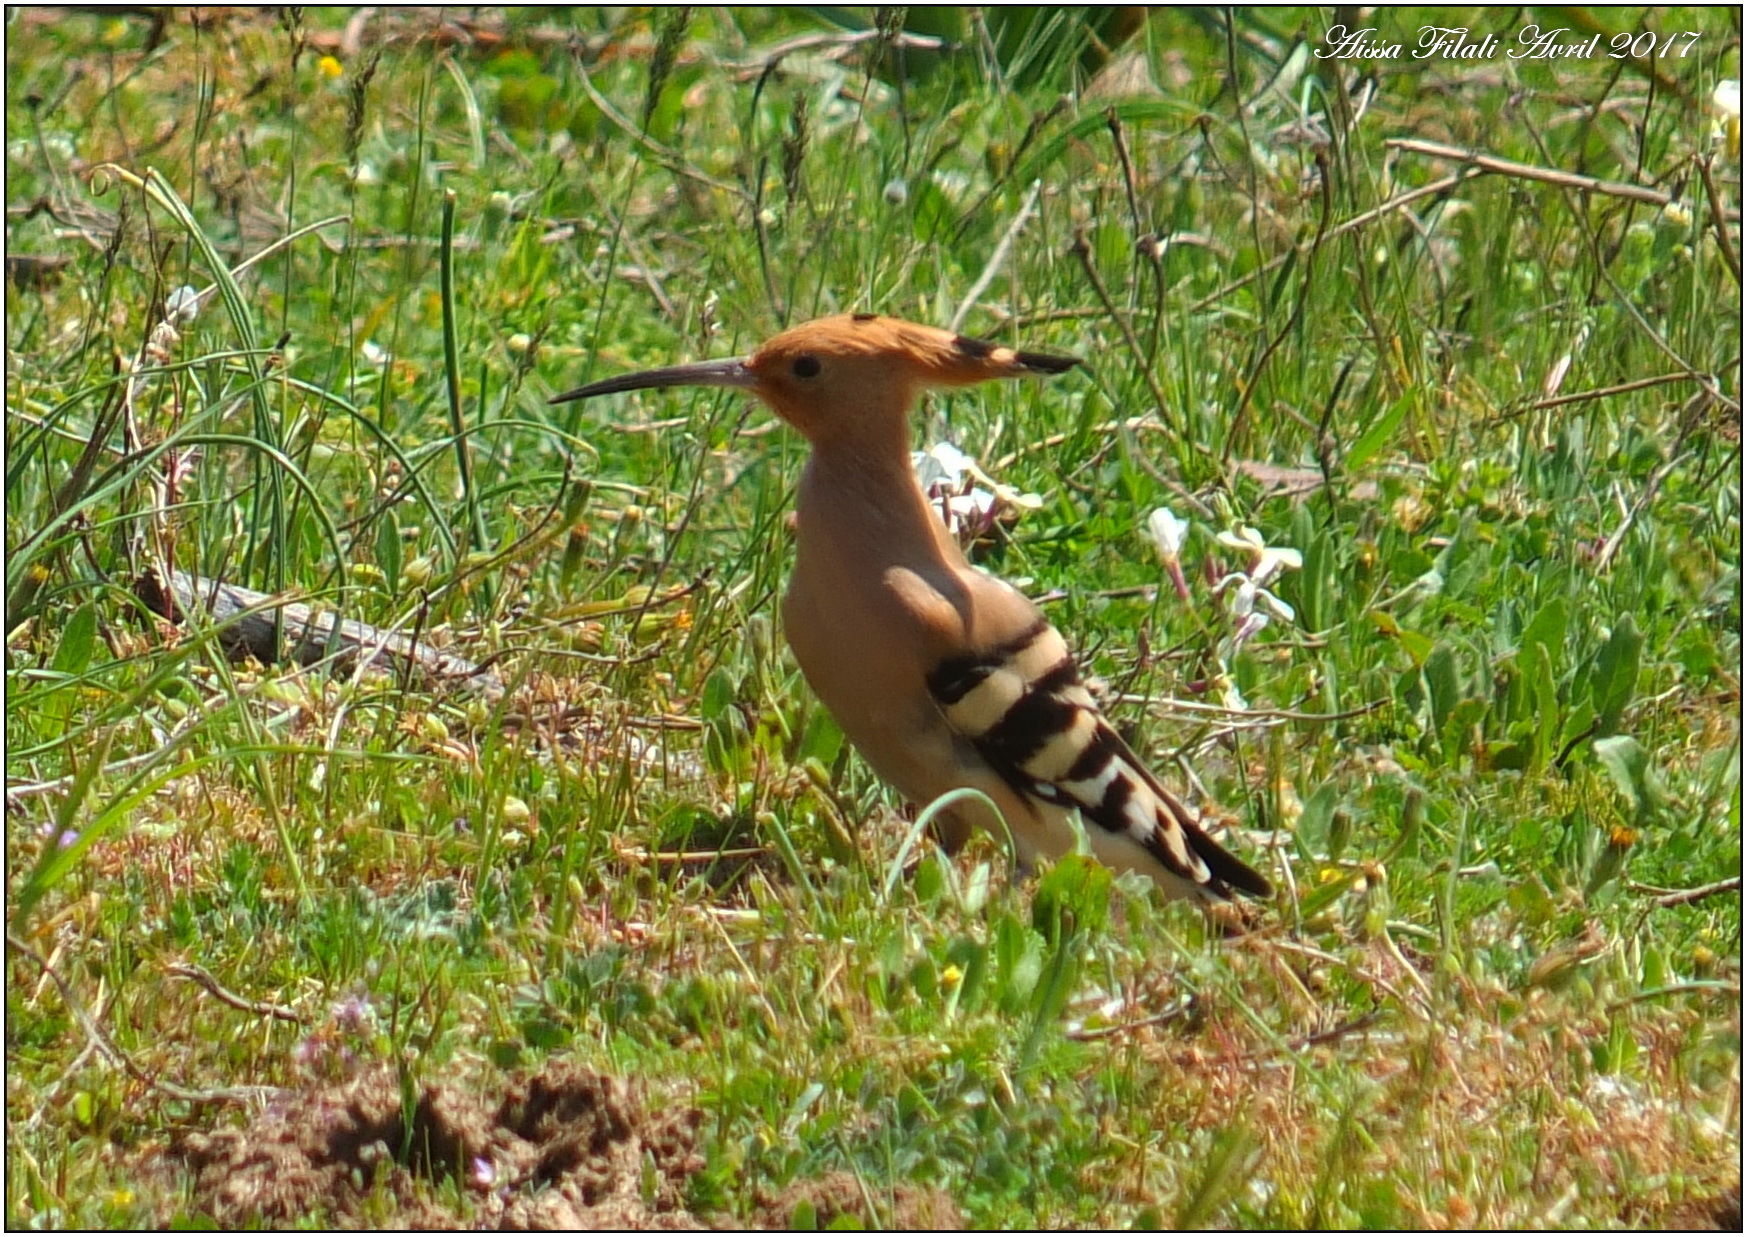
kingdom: Animalia
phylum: Chordata
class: Aves
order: Bucerotiformes
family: Upupidae
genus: Upupa
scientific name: Upupa epops
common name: Eurasian hoopoe
